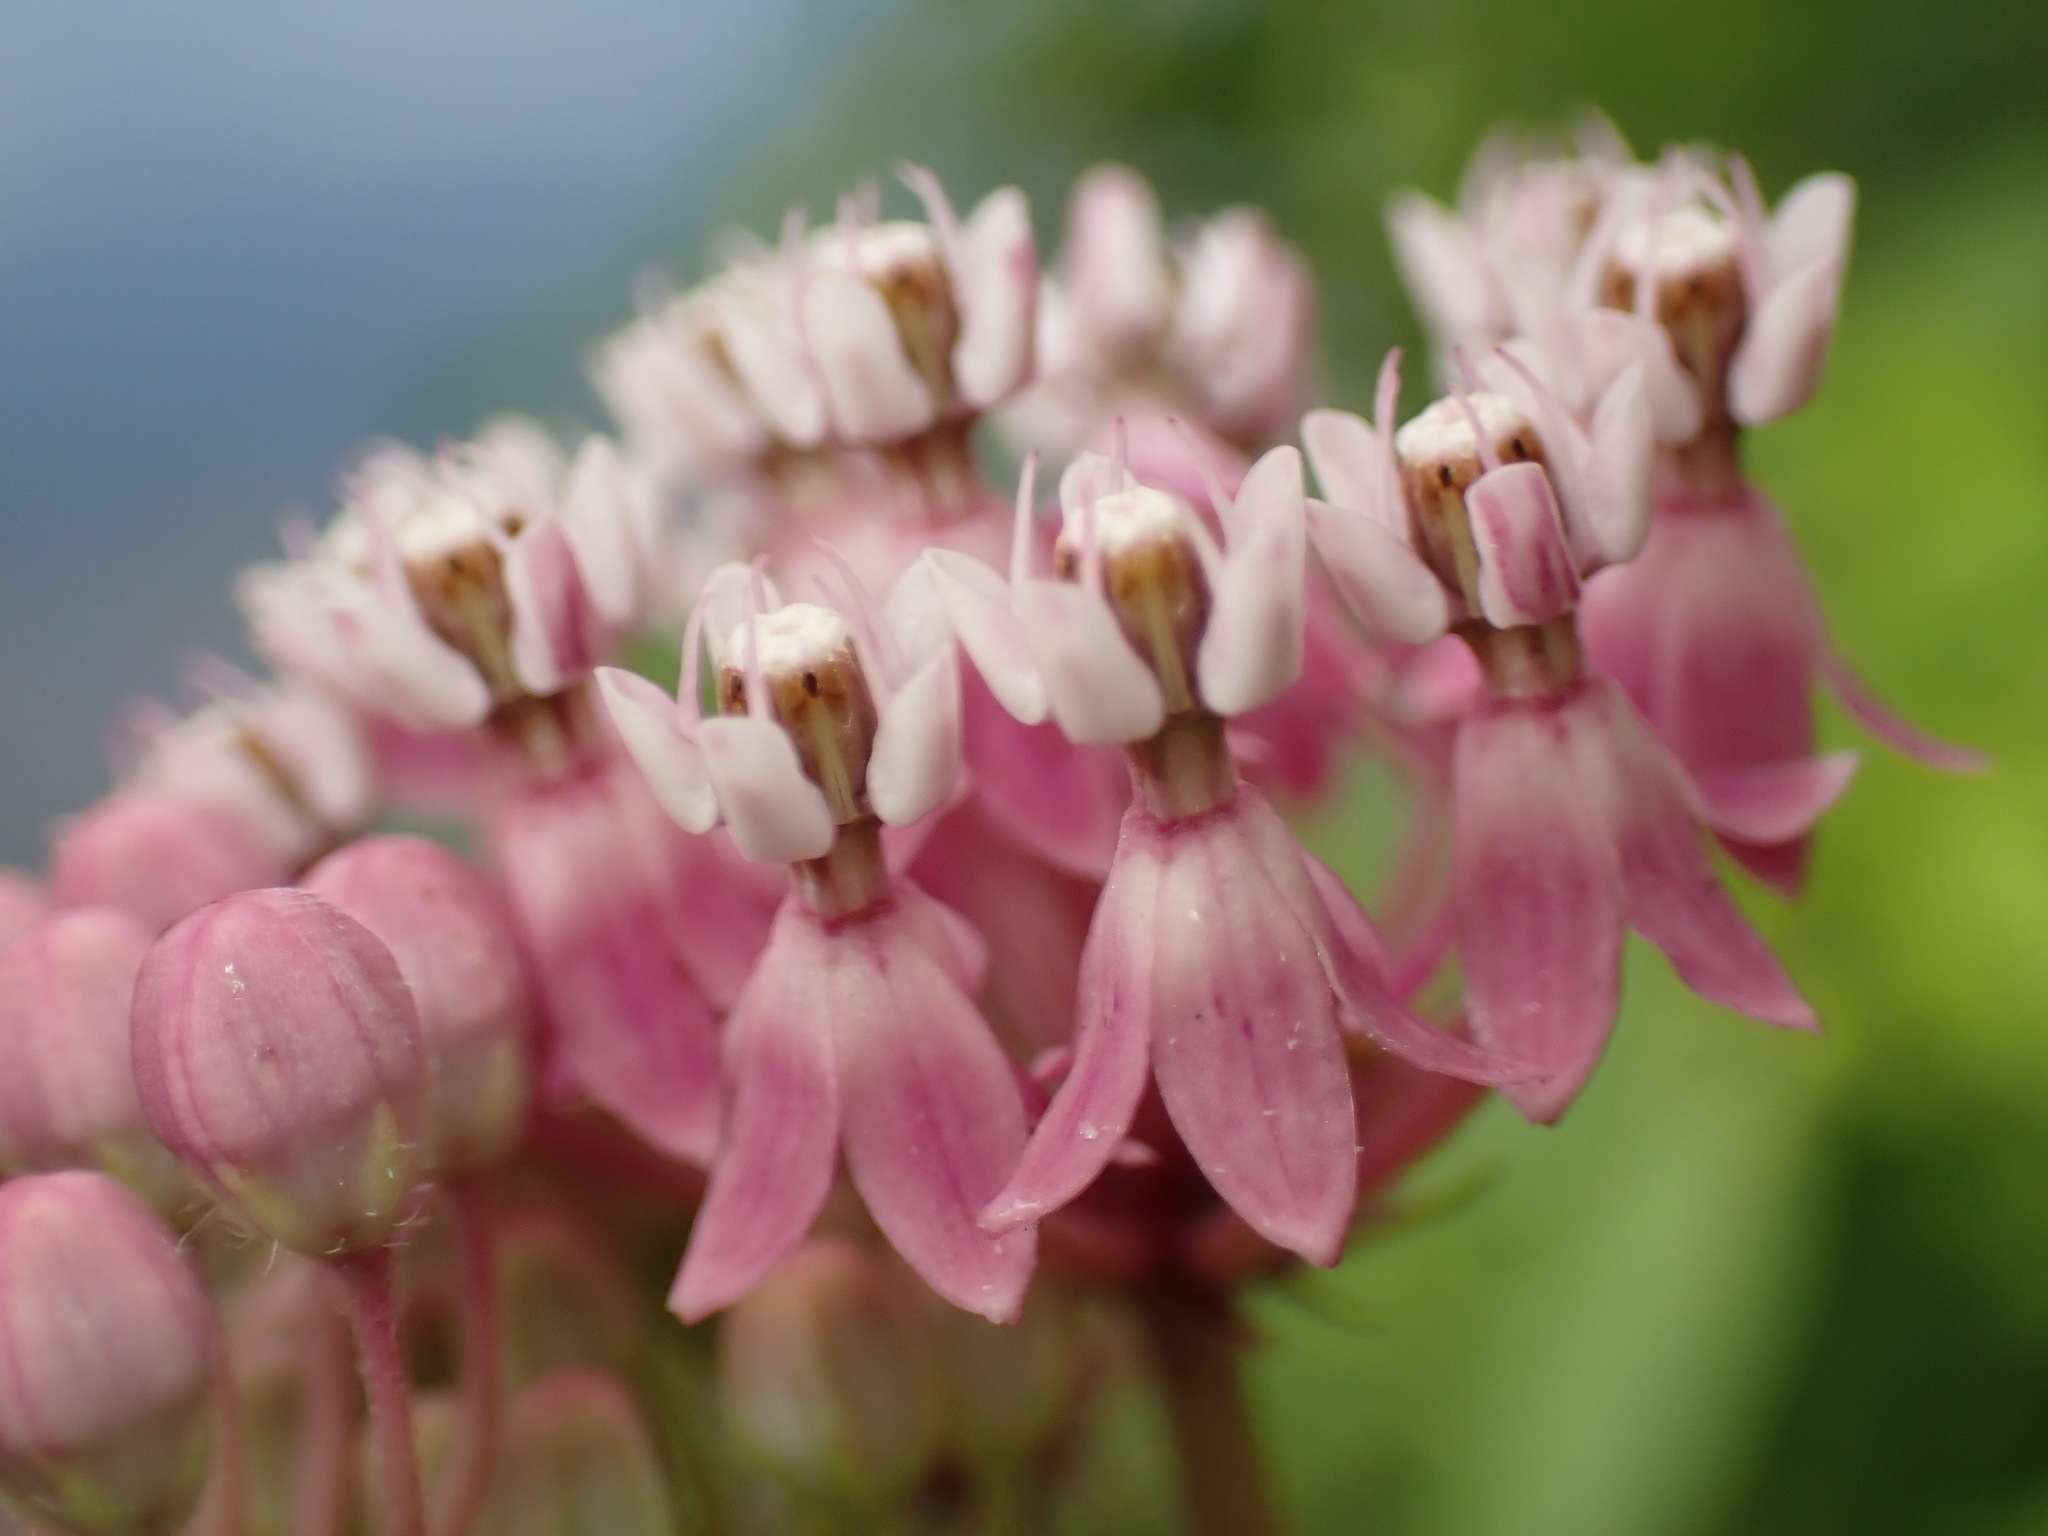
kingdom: Plantae
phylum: Tracheophyta
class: Magnoliopsida
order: Gentianales
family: Apocynaceae
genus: Asclepias
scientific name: Asclepias incarnata
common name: Swamp milkweed
